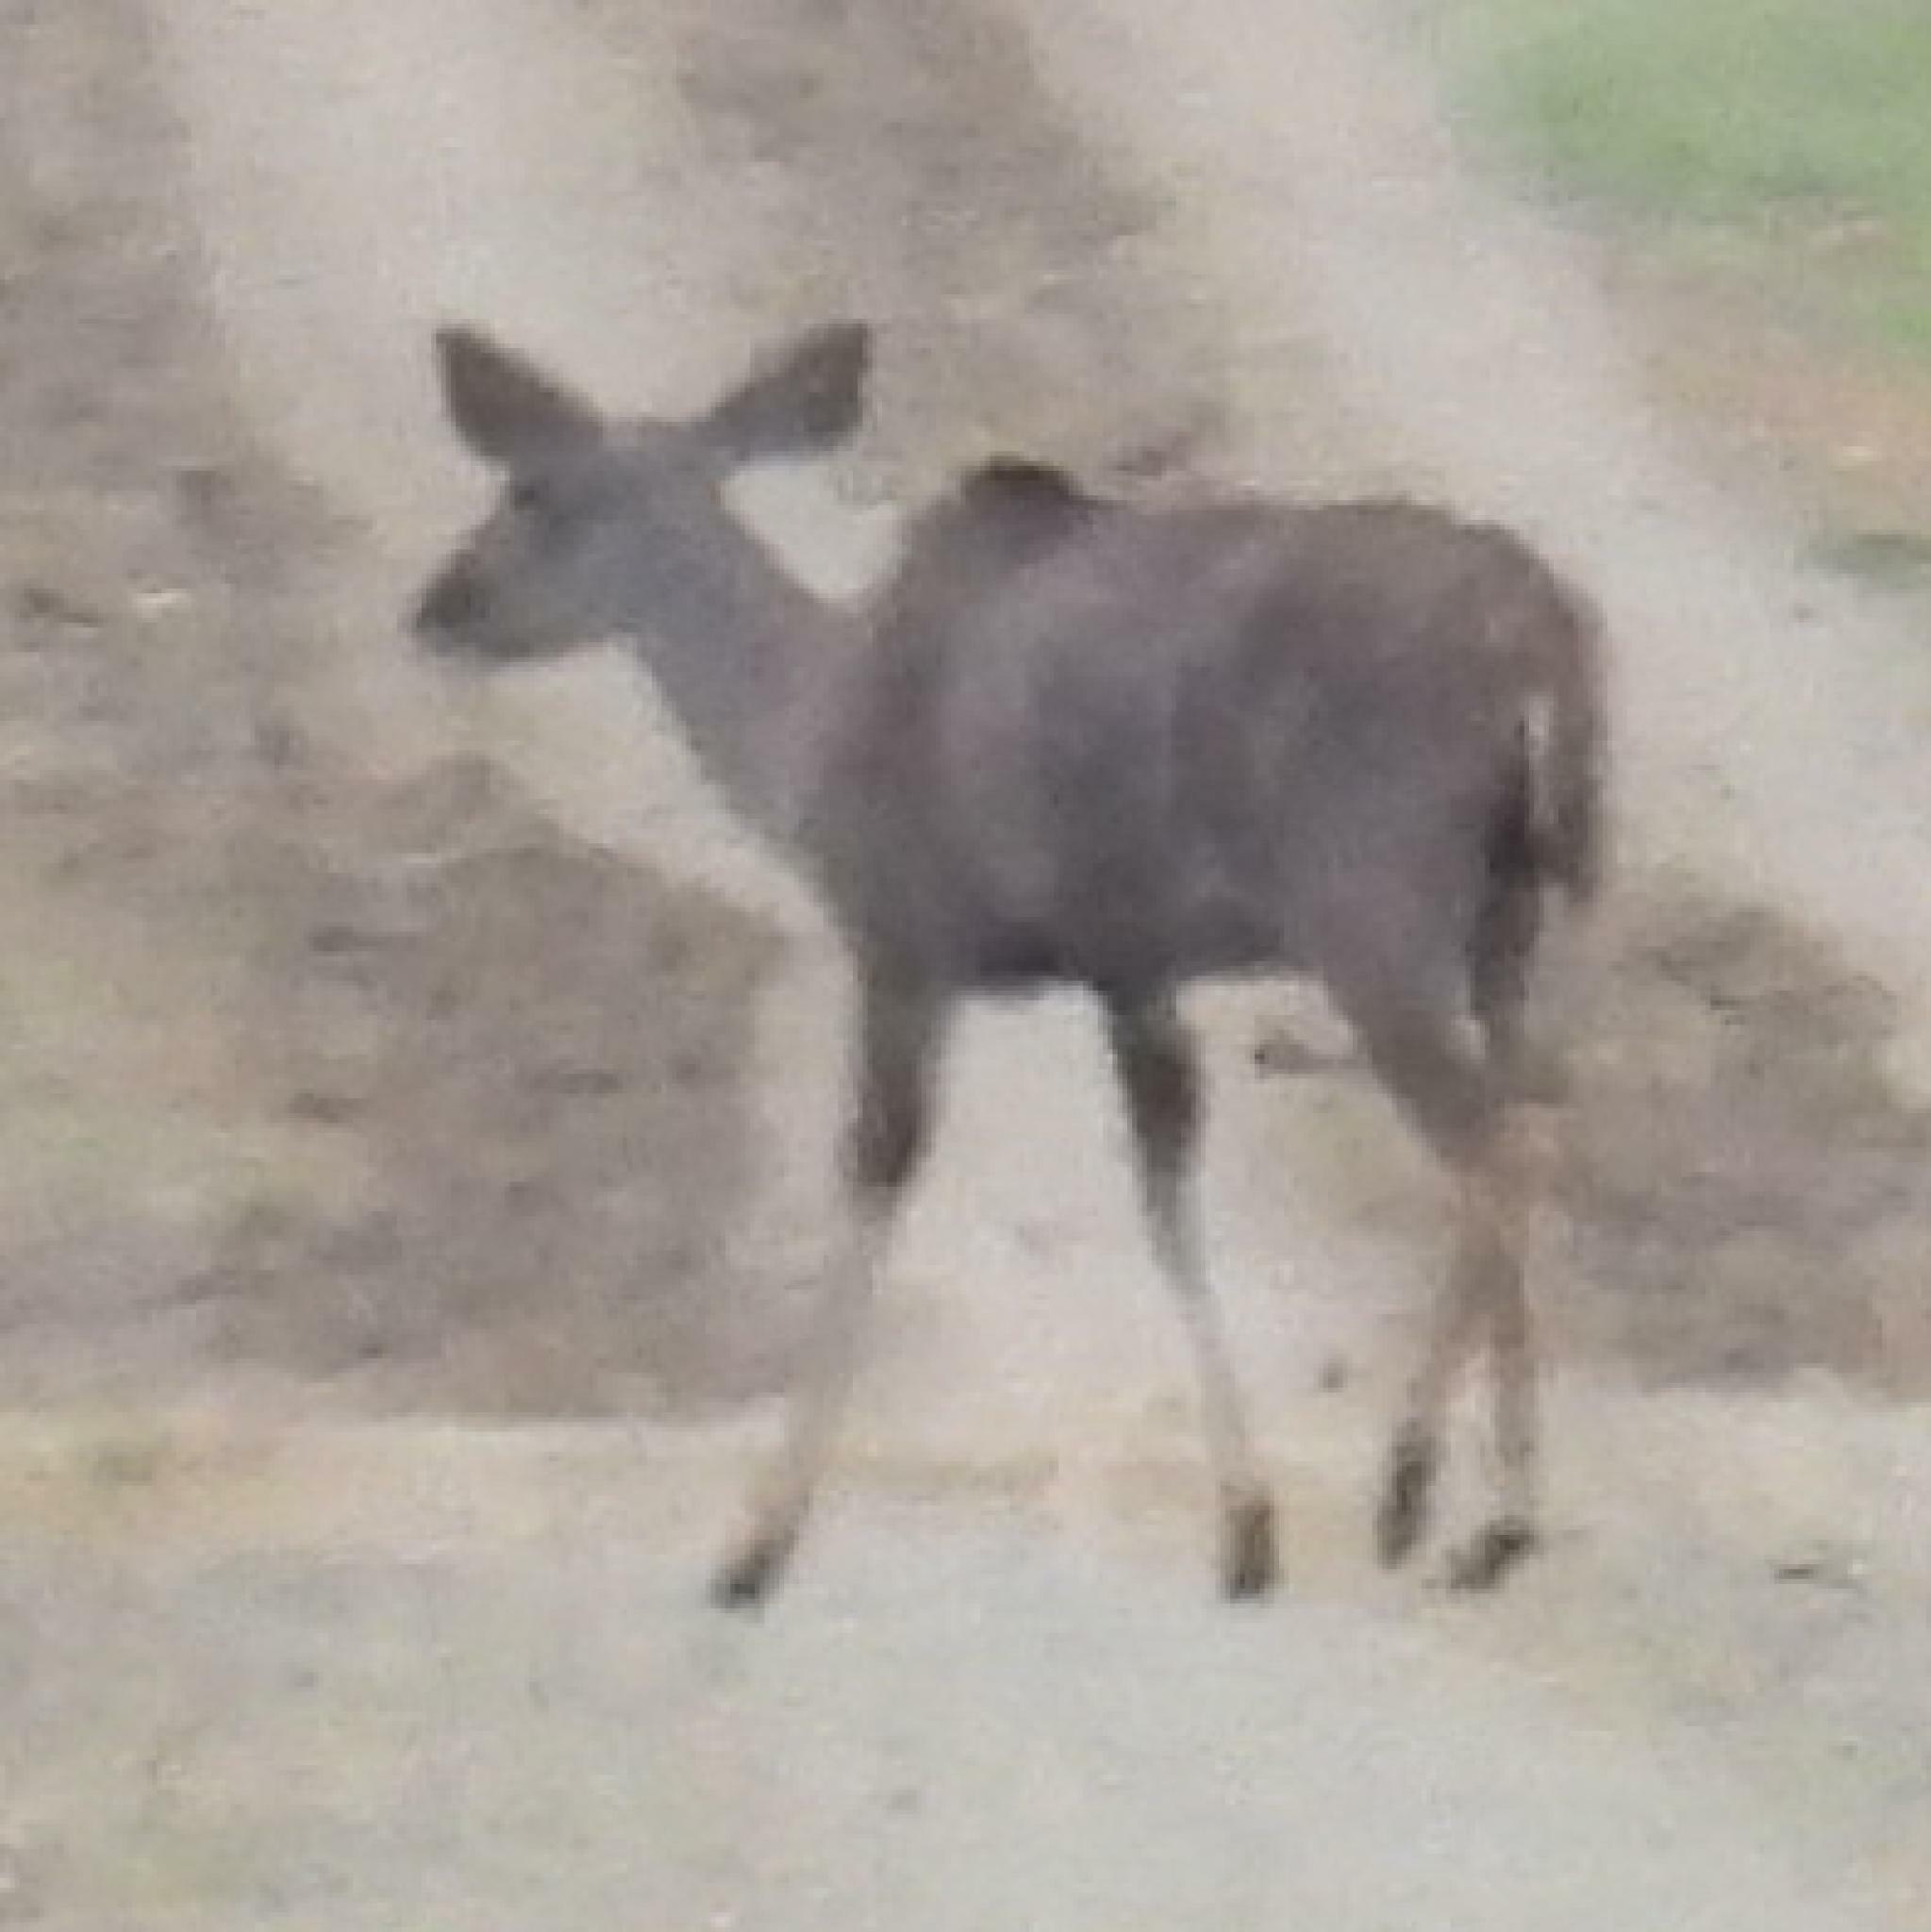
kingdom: Animalia
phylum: Chordata
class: Mammalia
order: Artiodactyla
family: Bovidae
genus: Tragelaphus
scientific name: Tragelaphus strepsiceros
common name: Greater kudu
